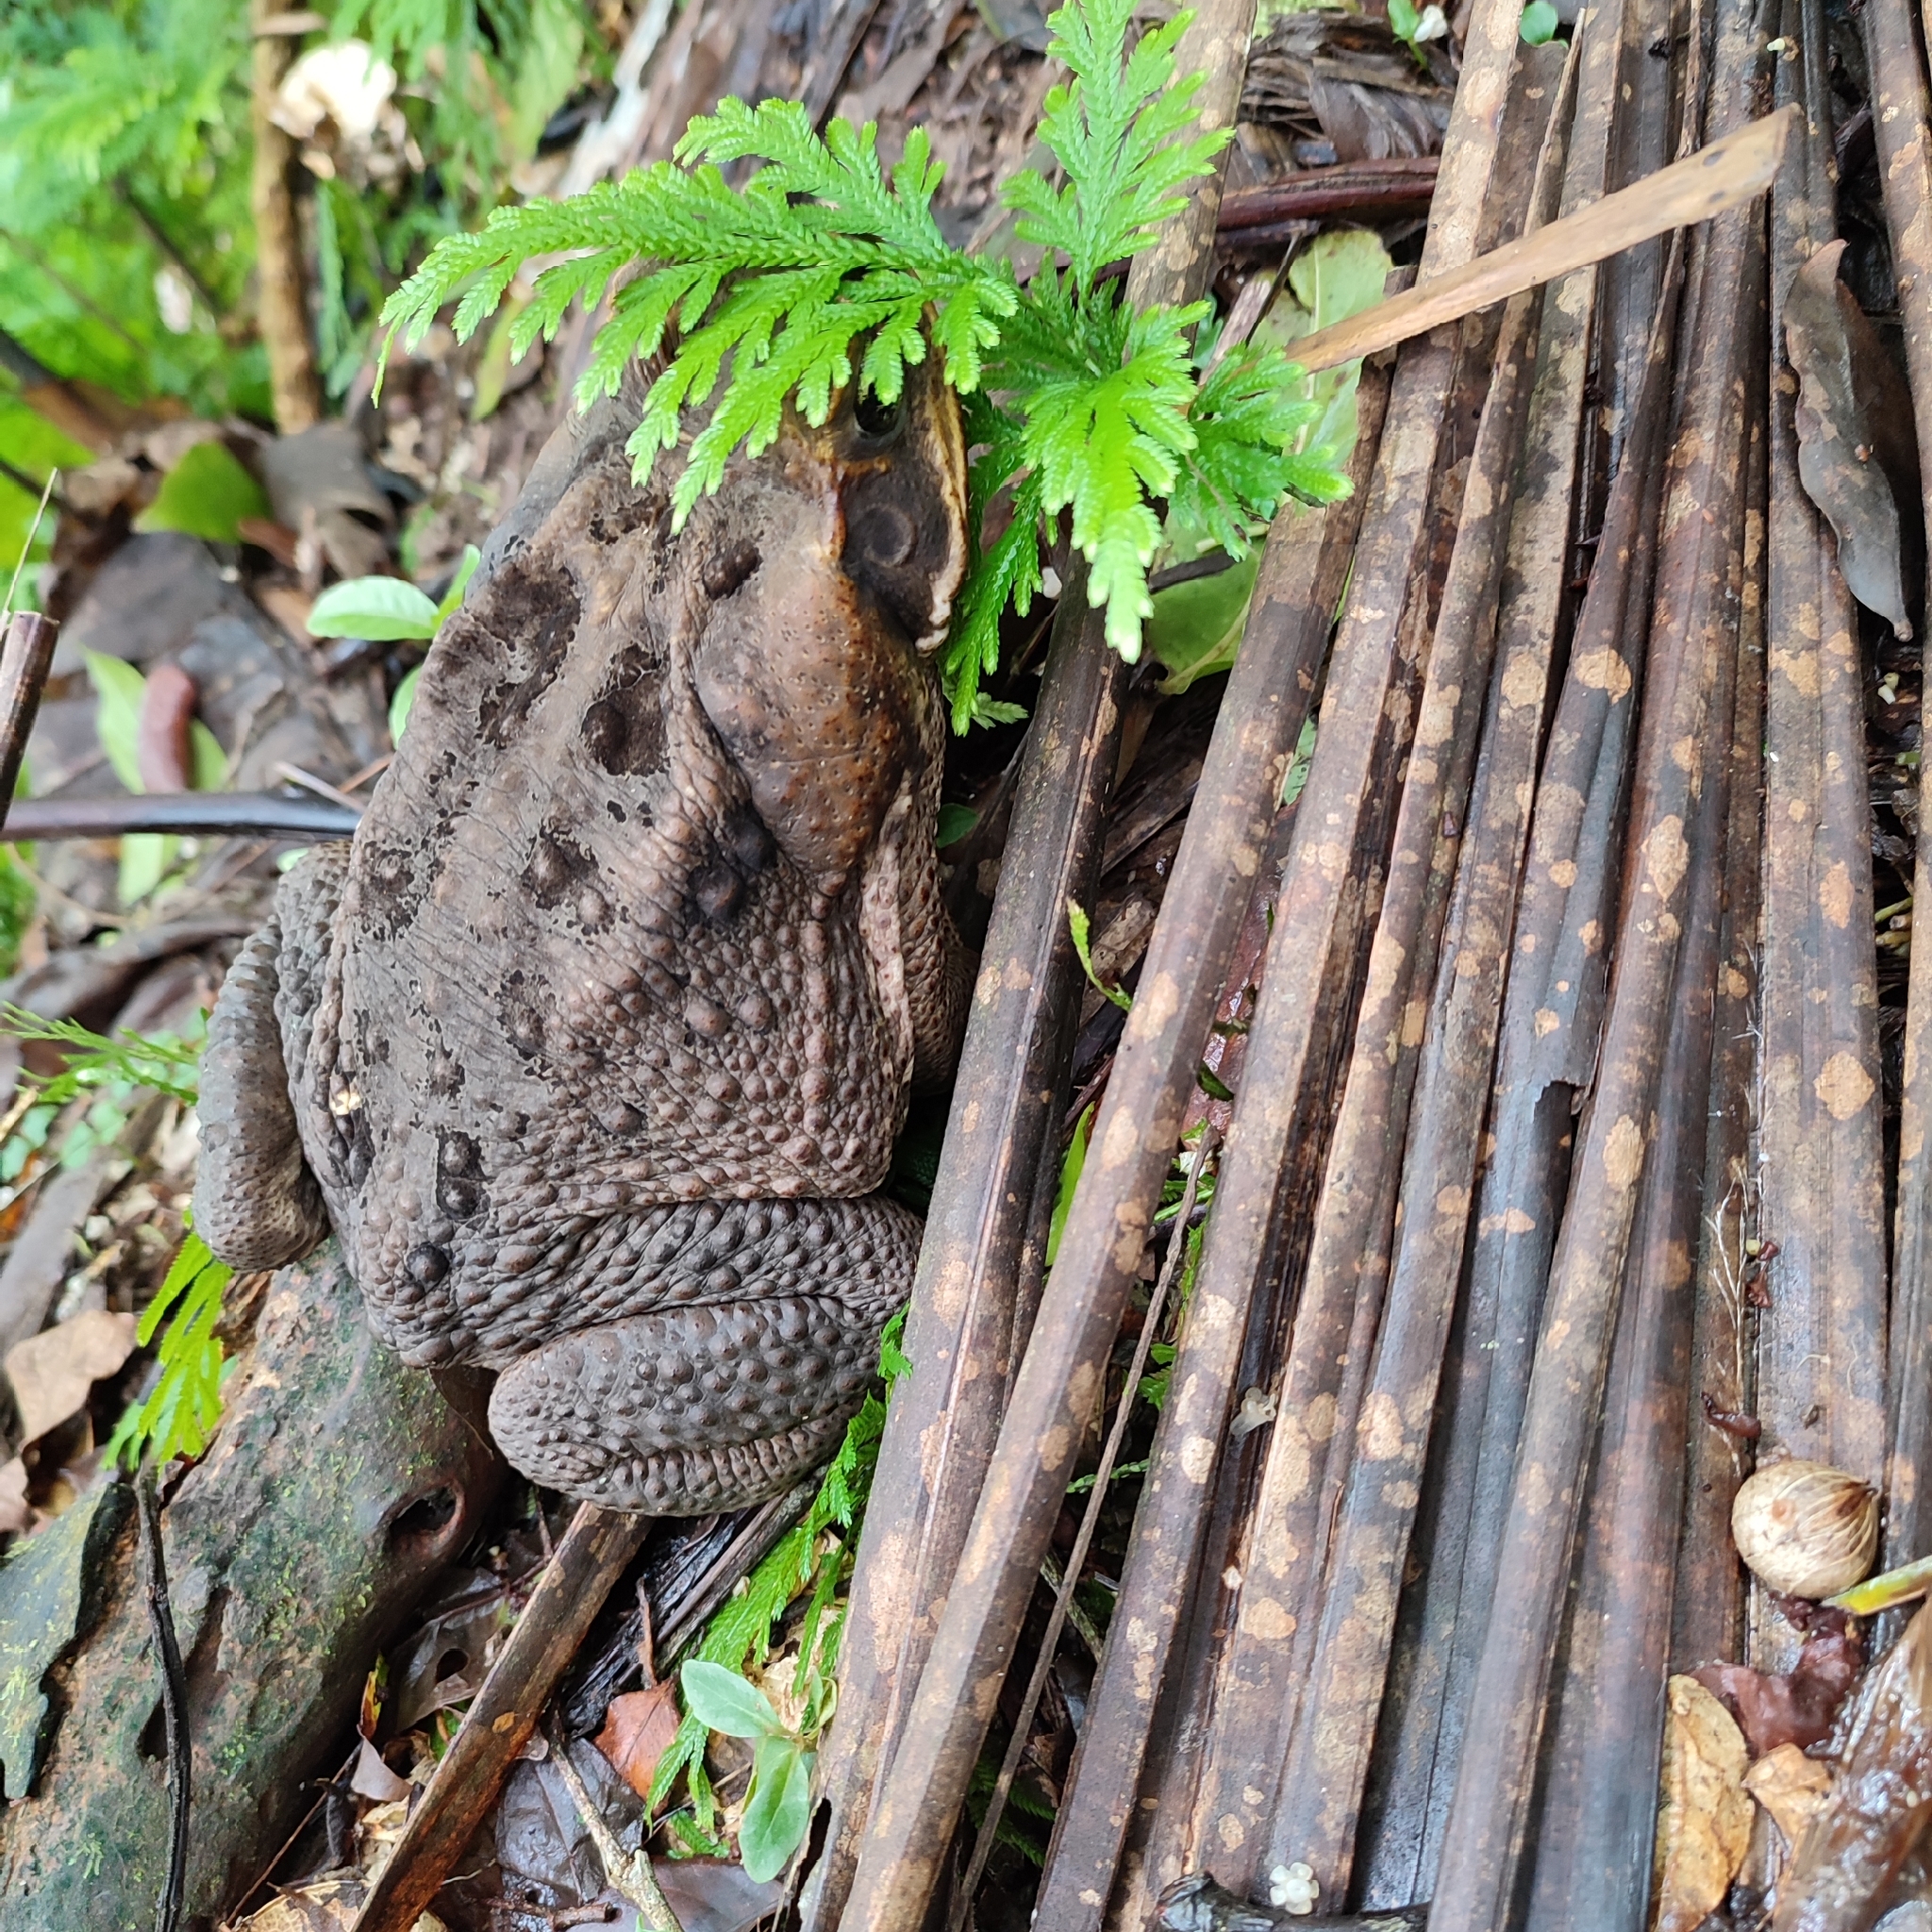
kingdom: Animalia
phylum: Chordata
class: Amphibia
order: Anura
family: Bufonidae
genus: Rhinella
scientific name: Rhinella marina
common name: Cane toad
